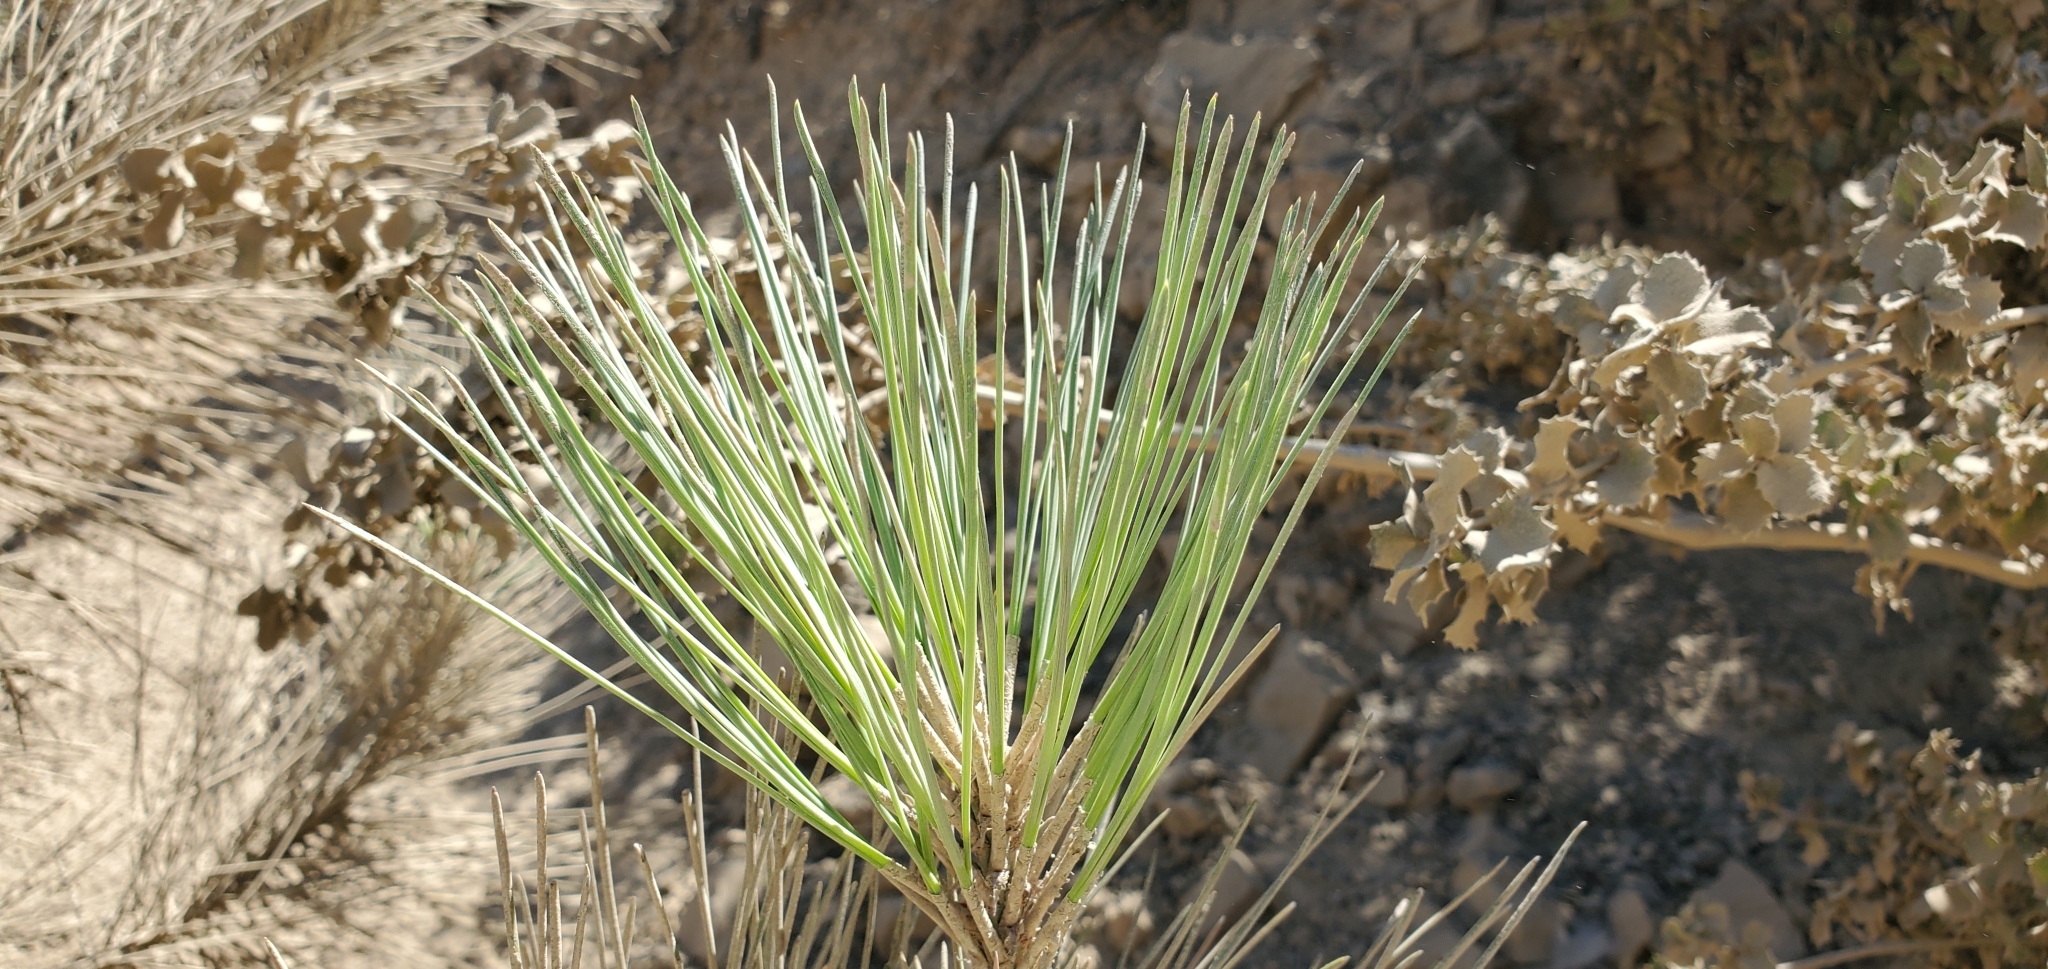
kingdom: Plantae
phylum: Tracheophyta
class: Pinopsida
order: Pinales
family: Pinaceae
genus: Pinus
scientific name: Pinus coulteri
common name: Coulter pine
